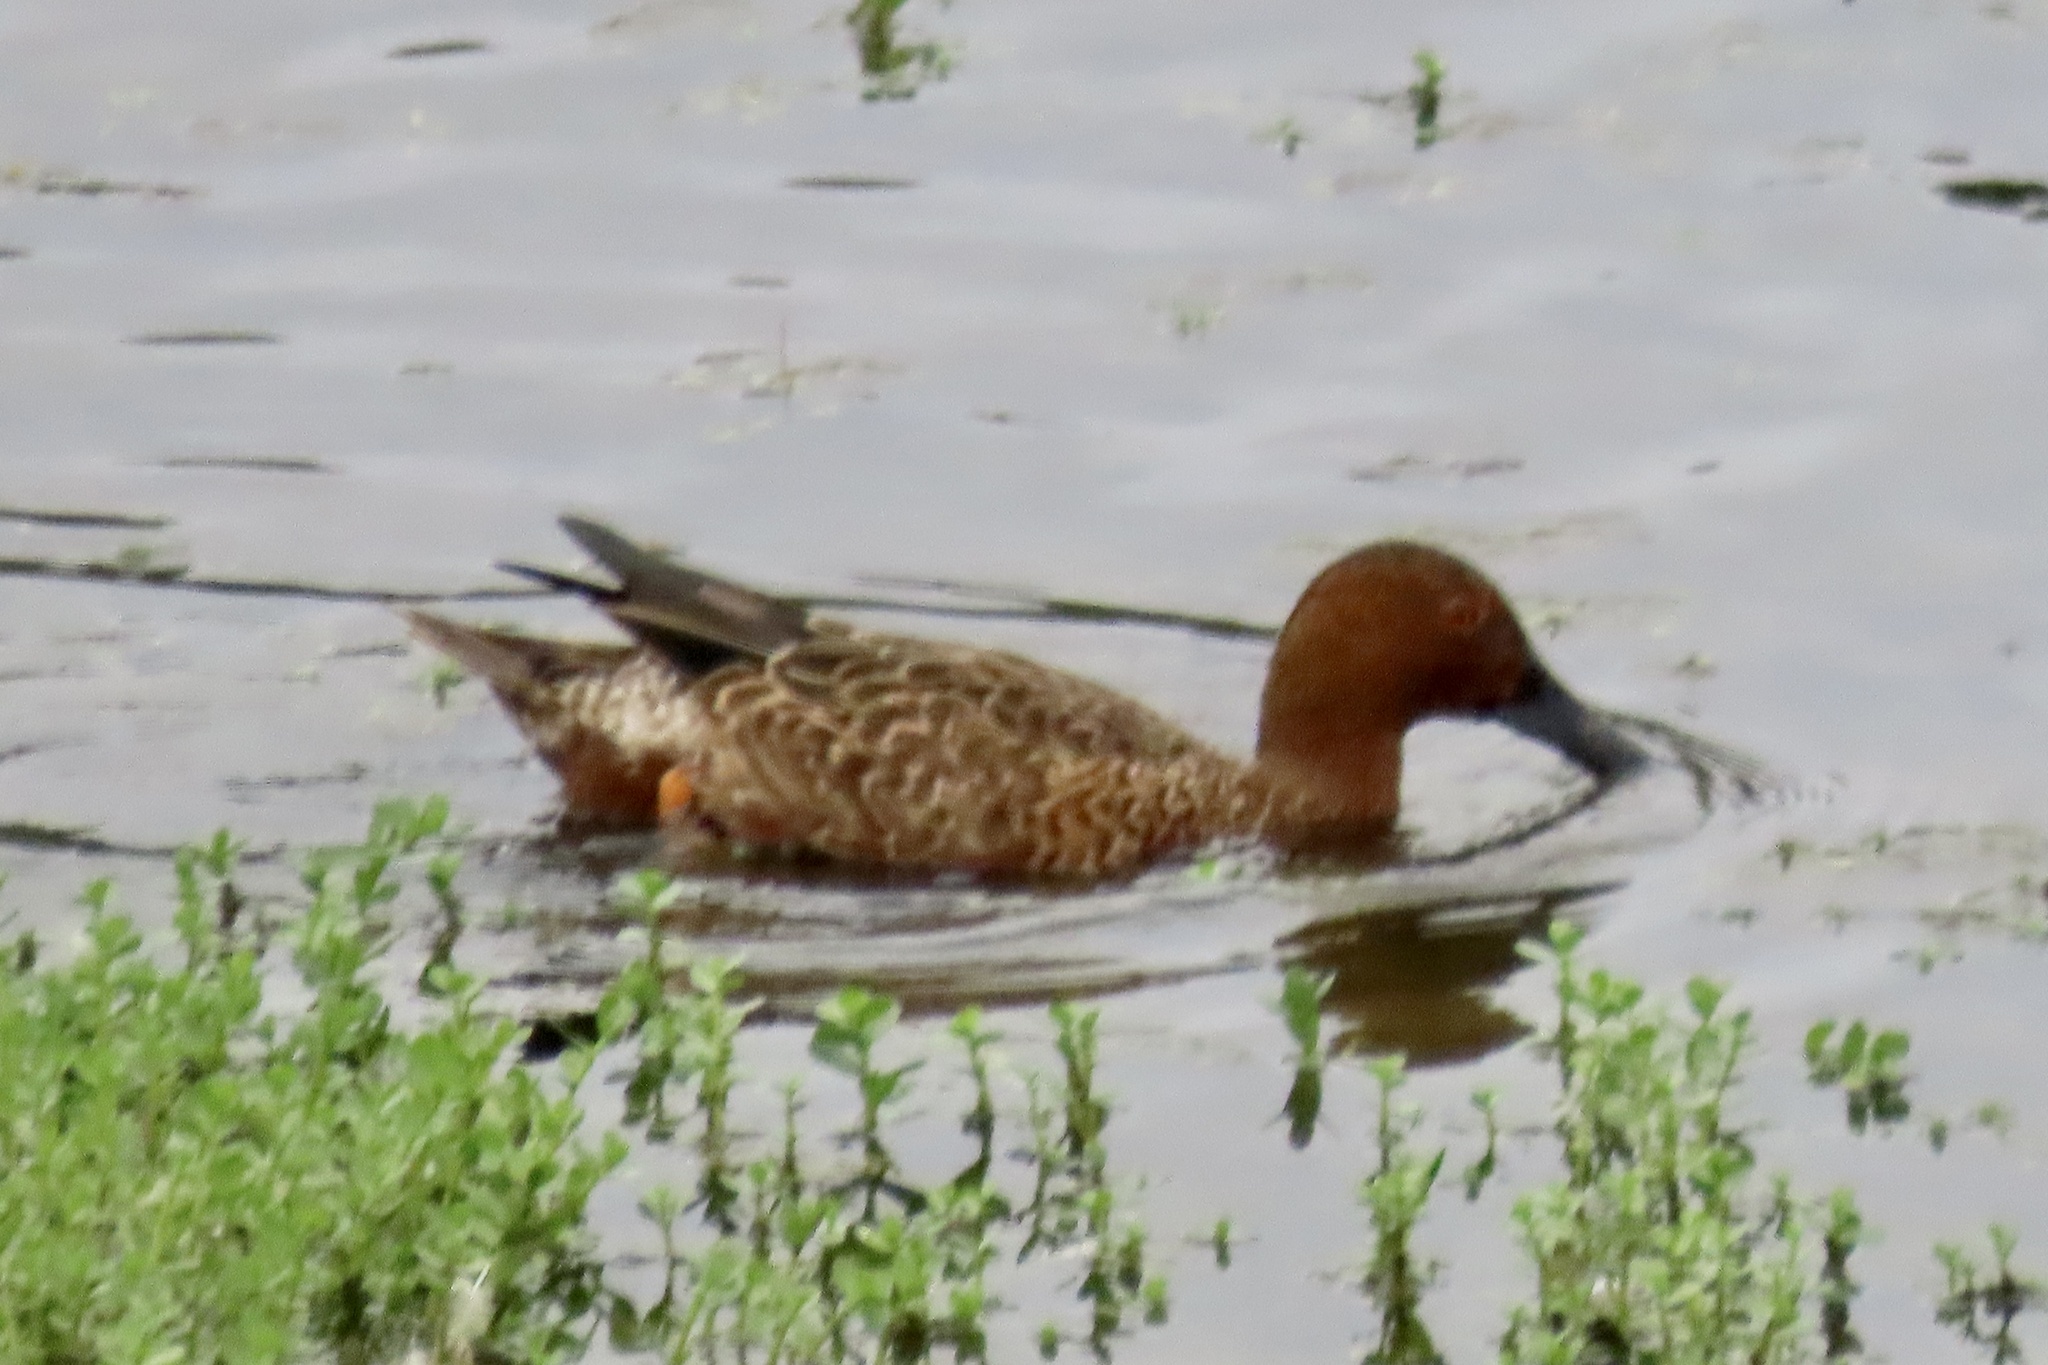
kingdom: Animalia
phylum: Chordata
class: Aves
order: Anseriformes
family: Anatidae
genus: Spatula
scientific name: Spatula cyanoptera
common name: Cinnamon teal
